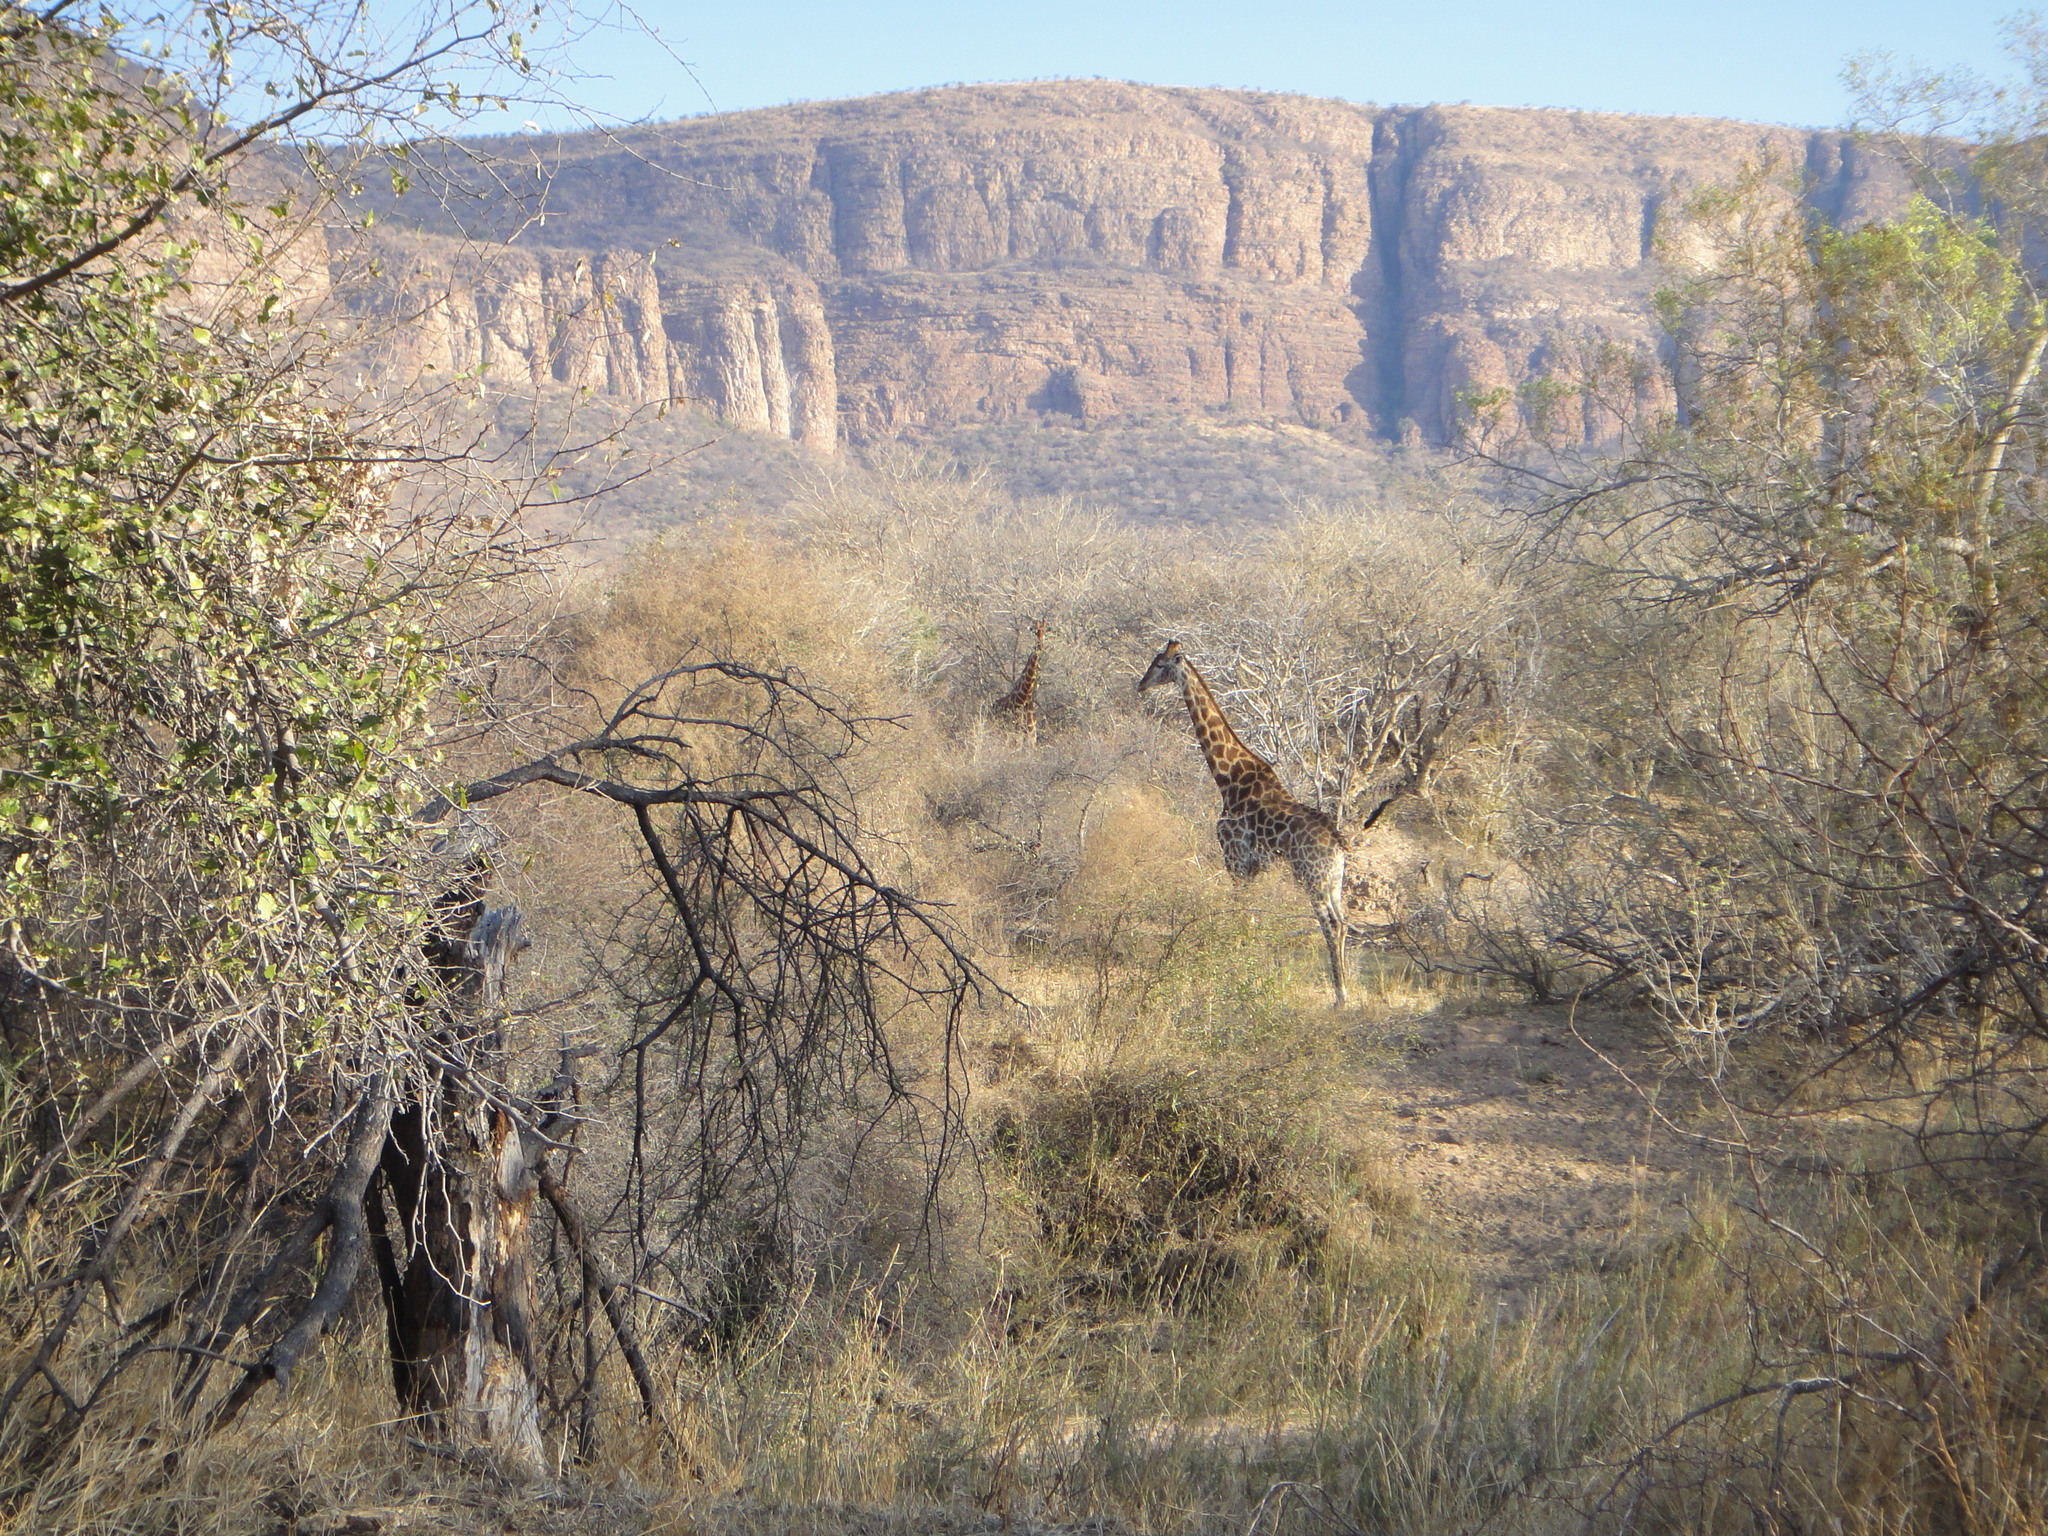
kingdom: Animalia
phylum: Chordata
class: Mammalia
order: Artiodactyla
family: Giraffidae
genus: Giraffa
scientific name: Giraffa giraffa
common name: Southern giraffe
